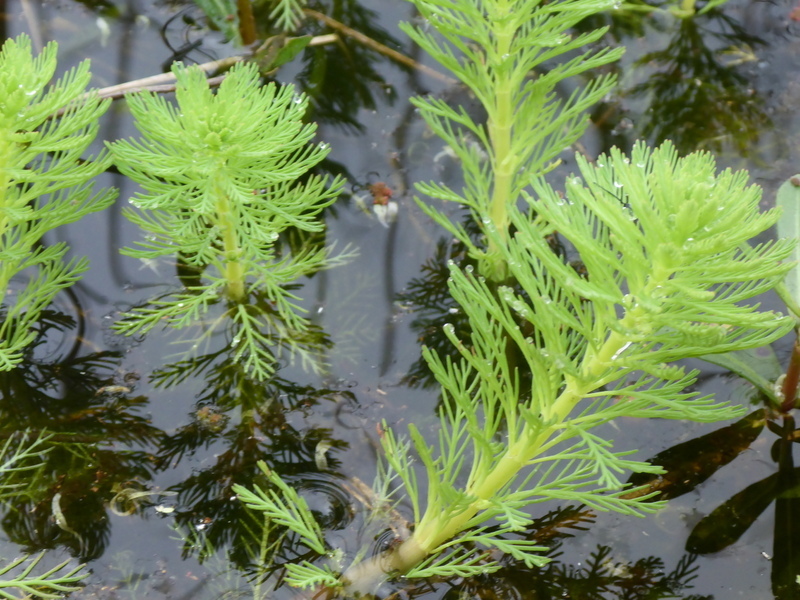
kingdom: Plantae
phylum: Tracheophyta
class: Magnoliopsida
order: Saxifragales
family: Haloragaceae
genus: Myriophyllum
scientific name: Myriophyllum aquaticum
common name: Parrot's feather
